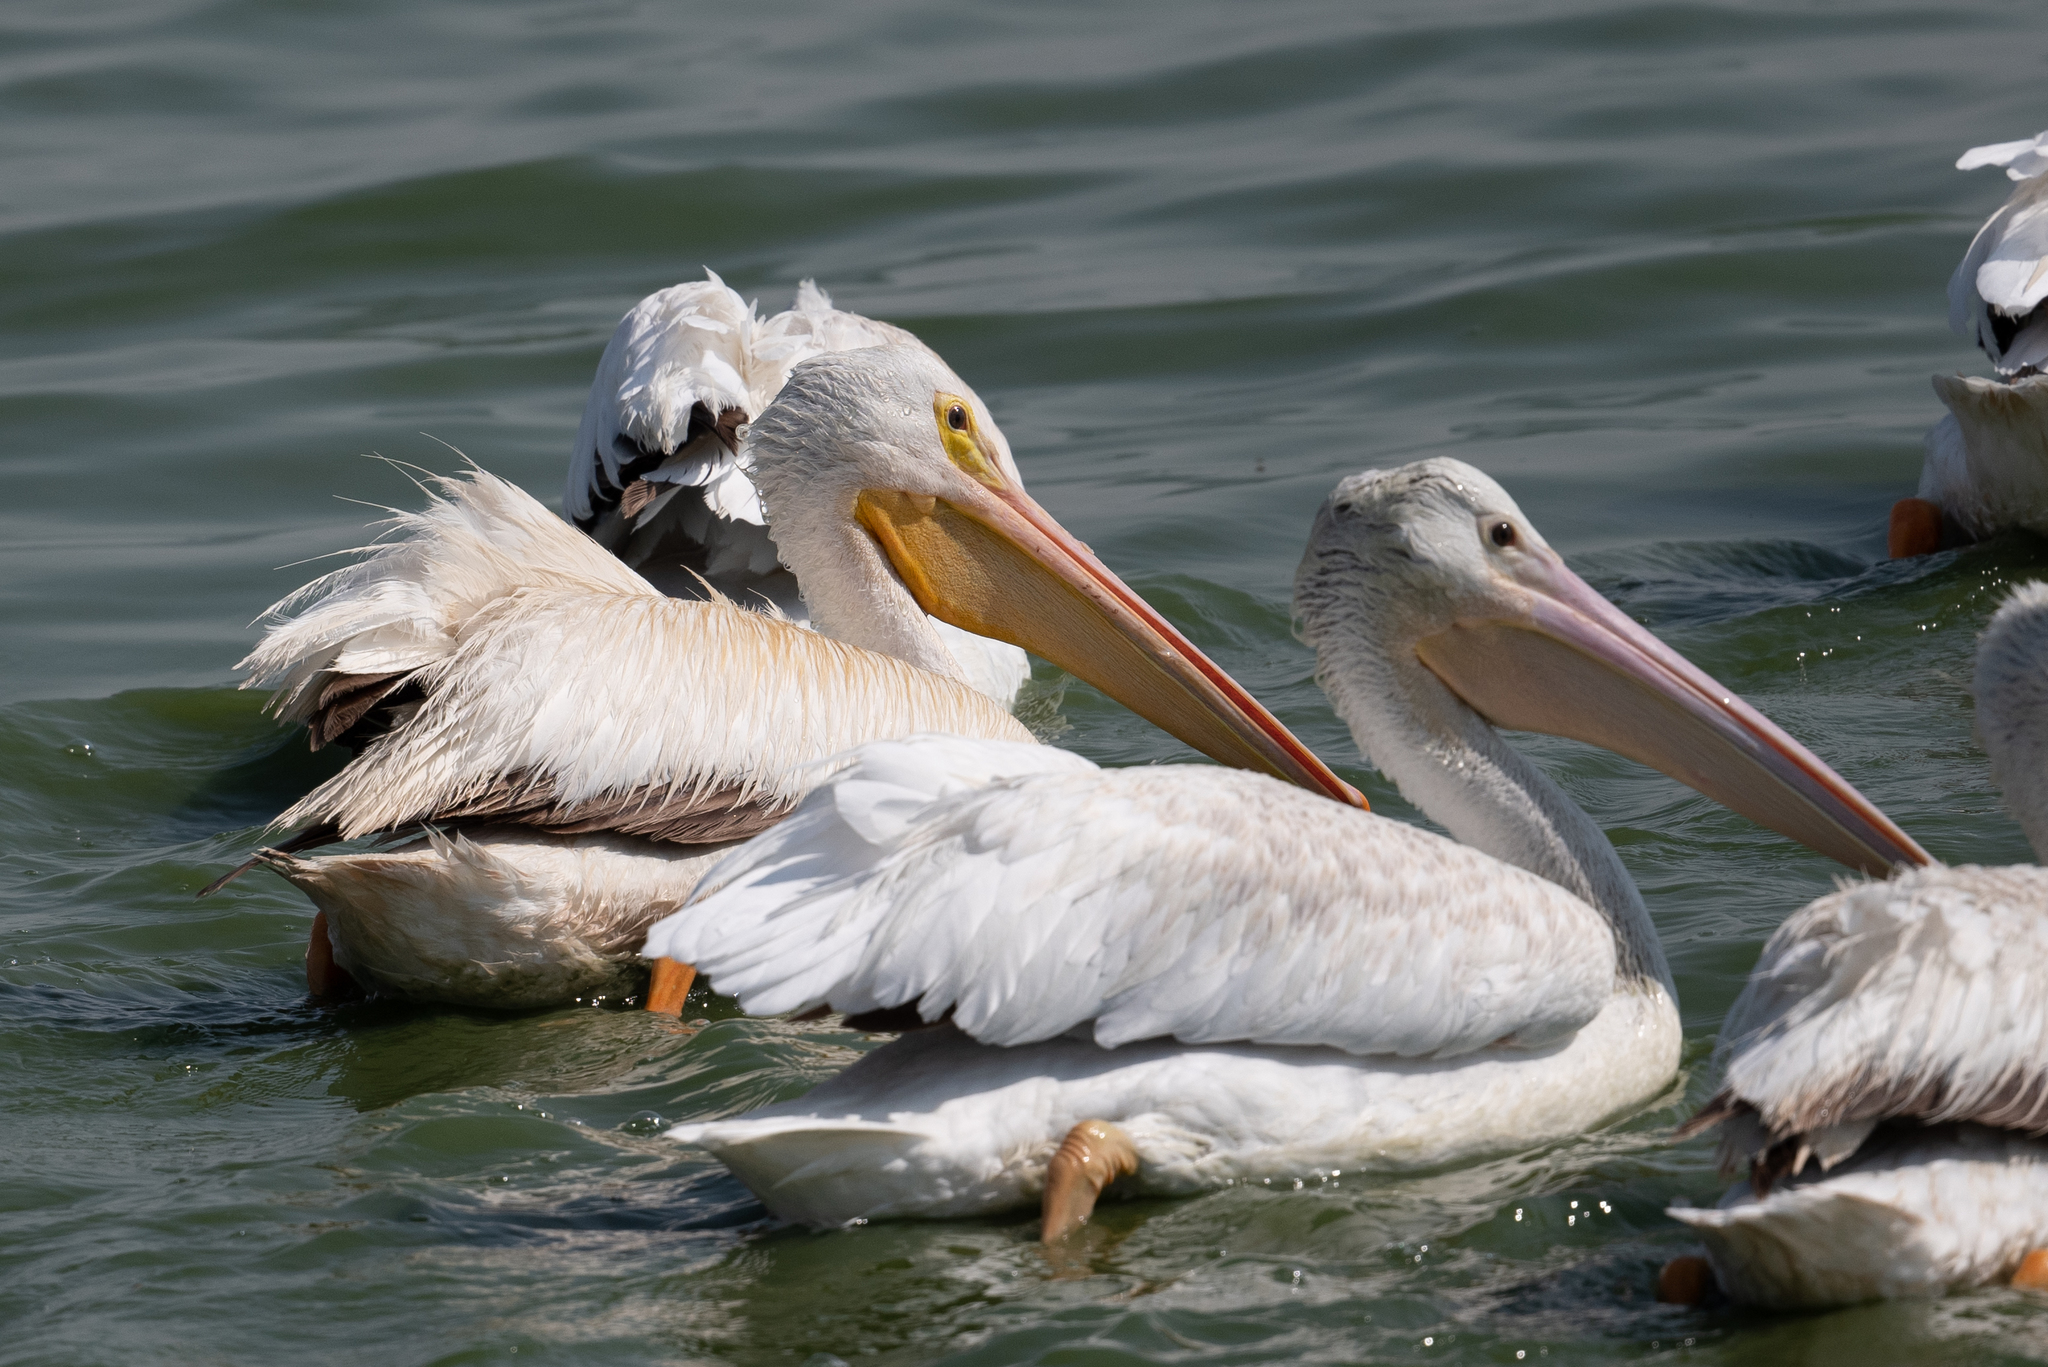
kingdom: Animalia
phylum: Chordata
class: Aves
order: Pelecaniformes
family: Pelecanidae
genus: Pelecanus
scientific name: Pelecanus erythrorhynchos
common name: American white pelican
